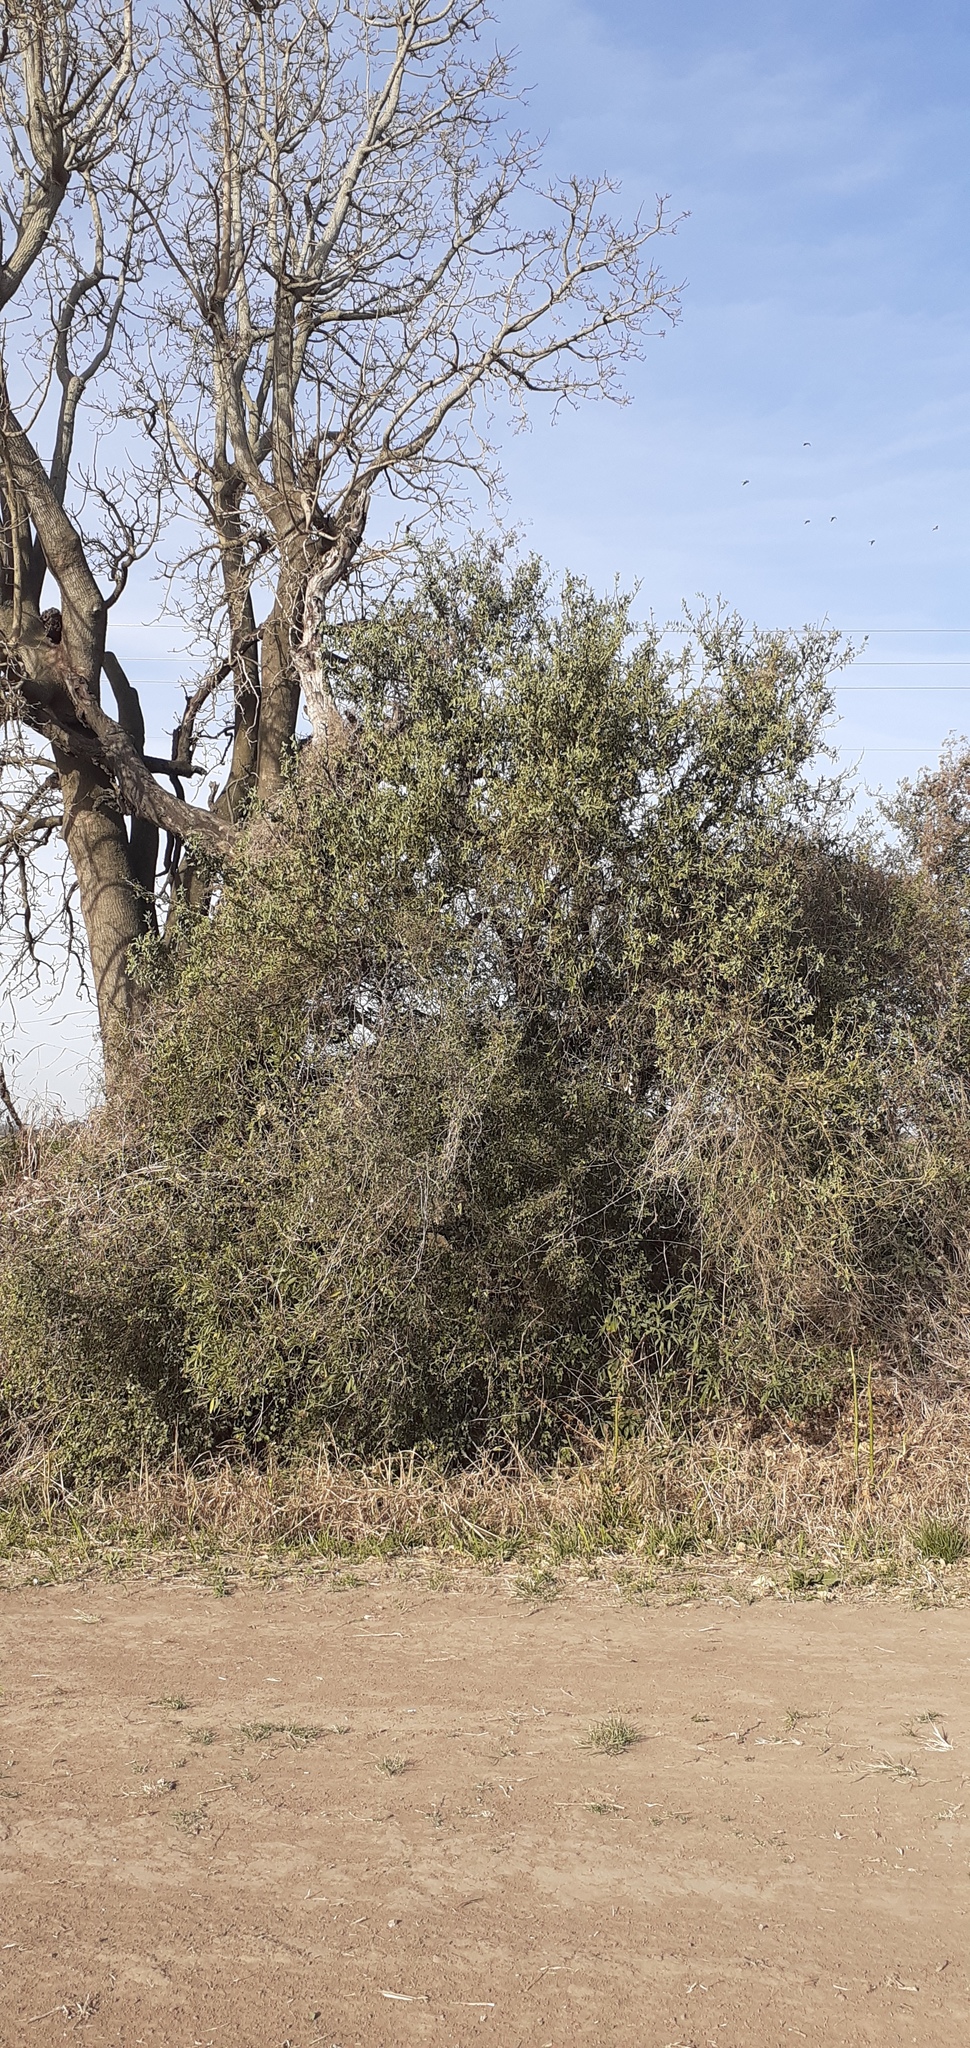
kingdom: Plantae
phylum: Tracheophyta
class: Magnoliopsida
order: Santalales
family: Cervantesiaceae
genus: Jodina
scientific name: Jodina rhombifolia
